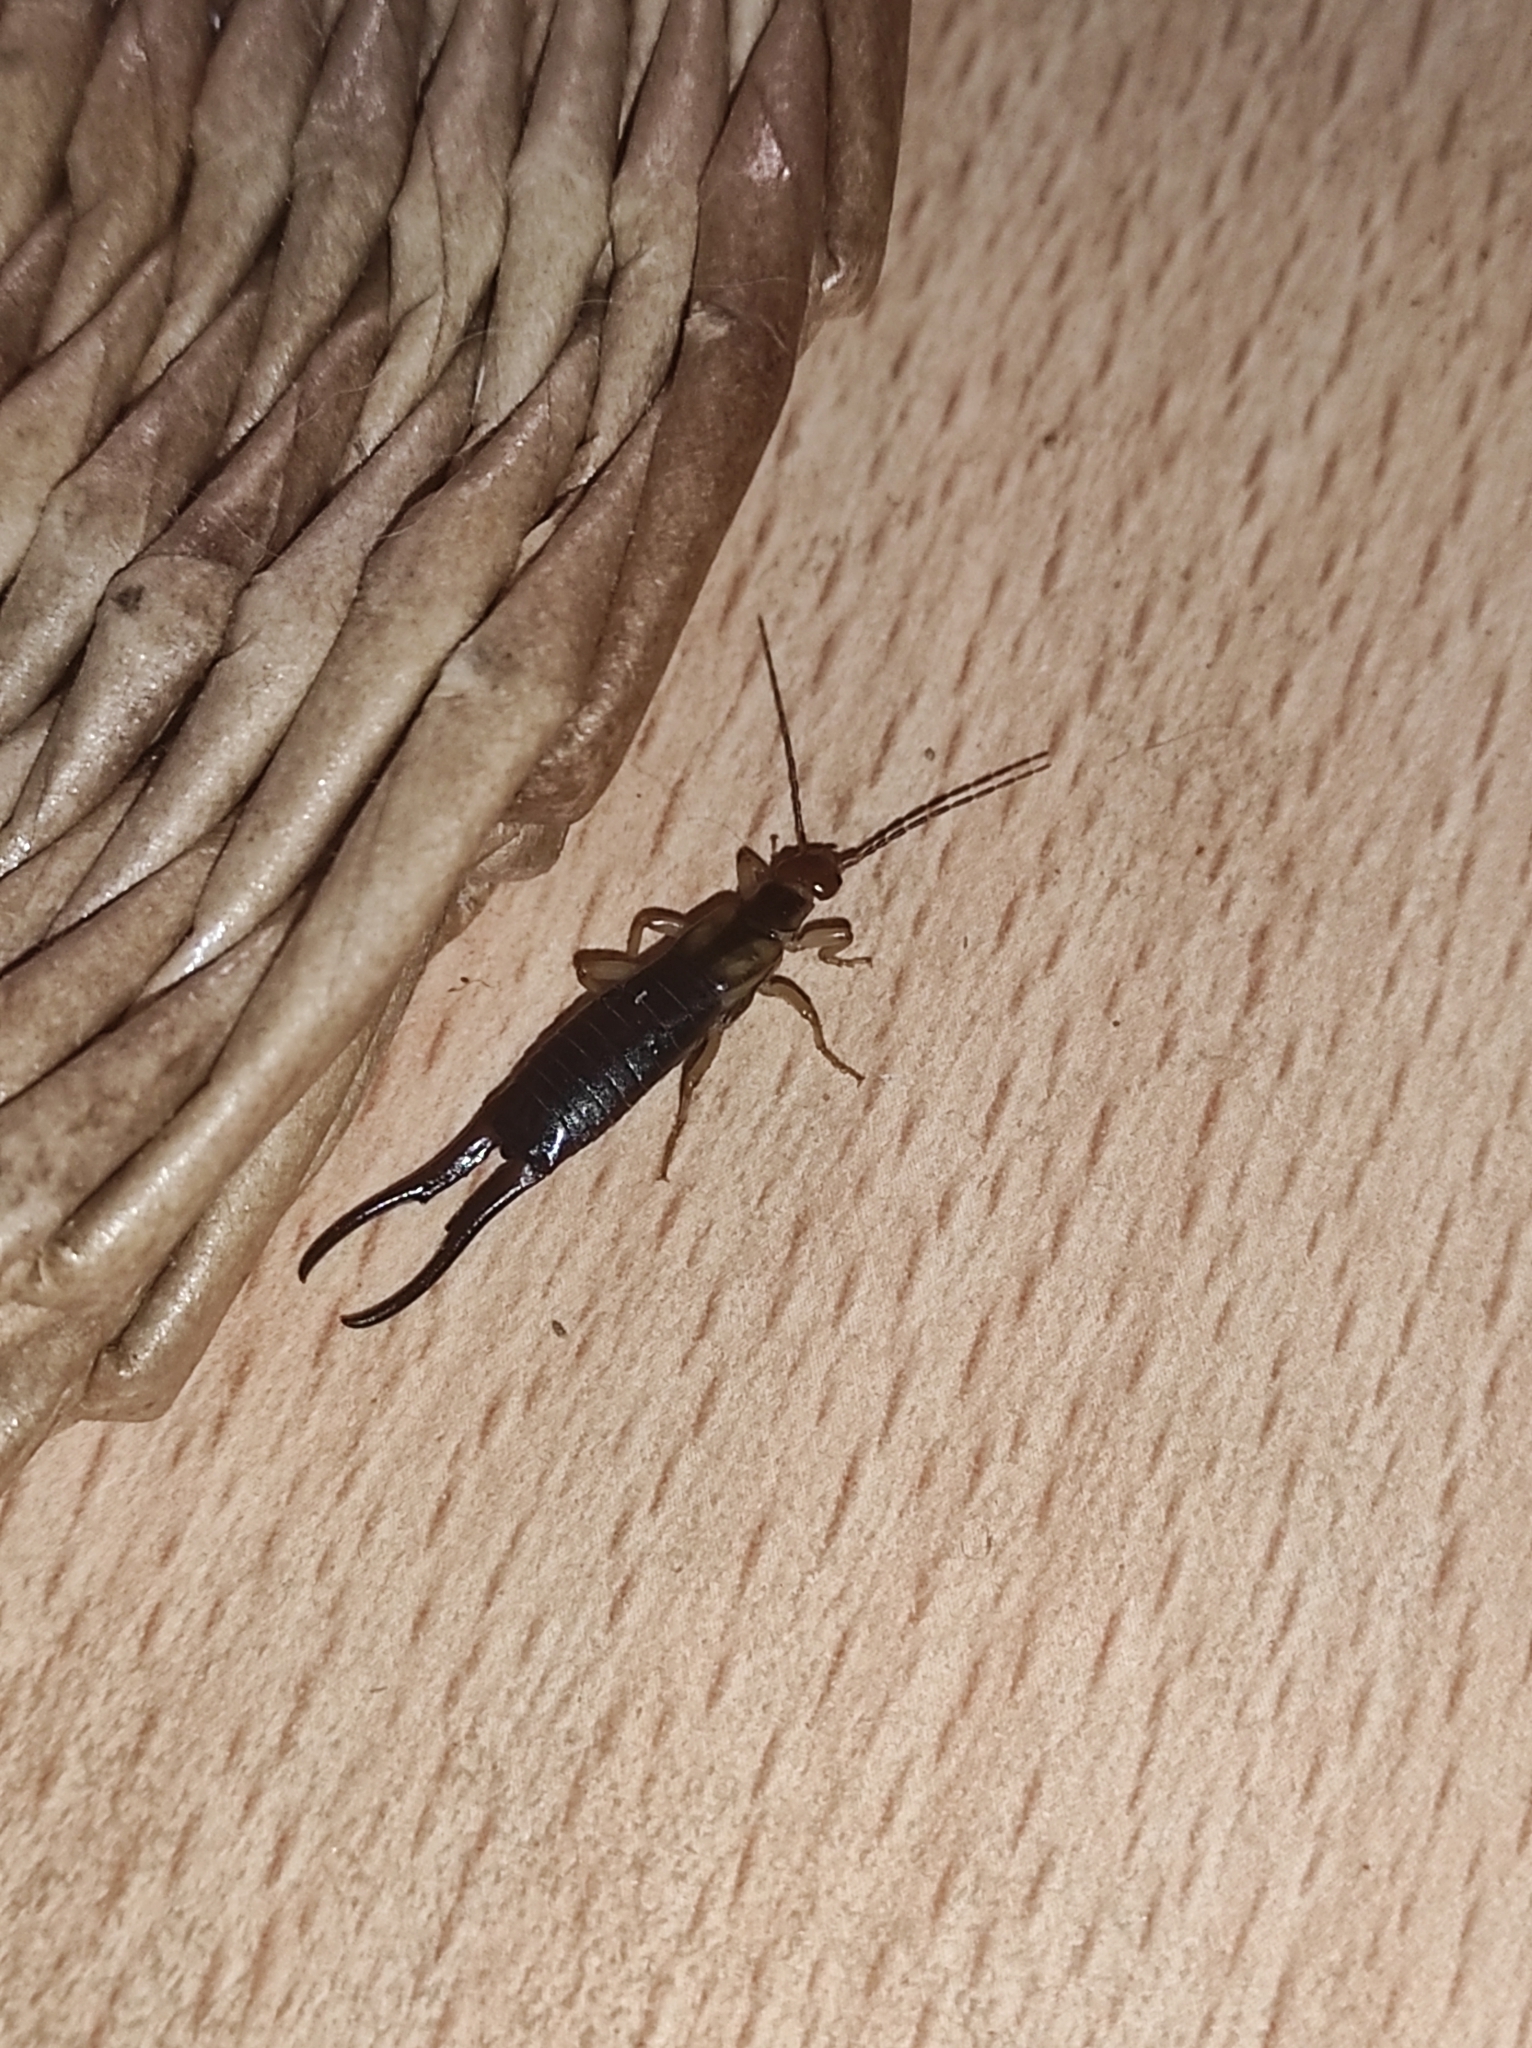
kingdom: Animalia
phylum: Arthropoda
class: Insecta
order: Dermaptera
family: Forficulidae
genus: Forficula
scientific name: Forficula tomis
